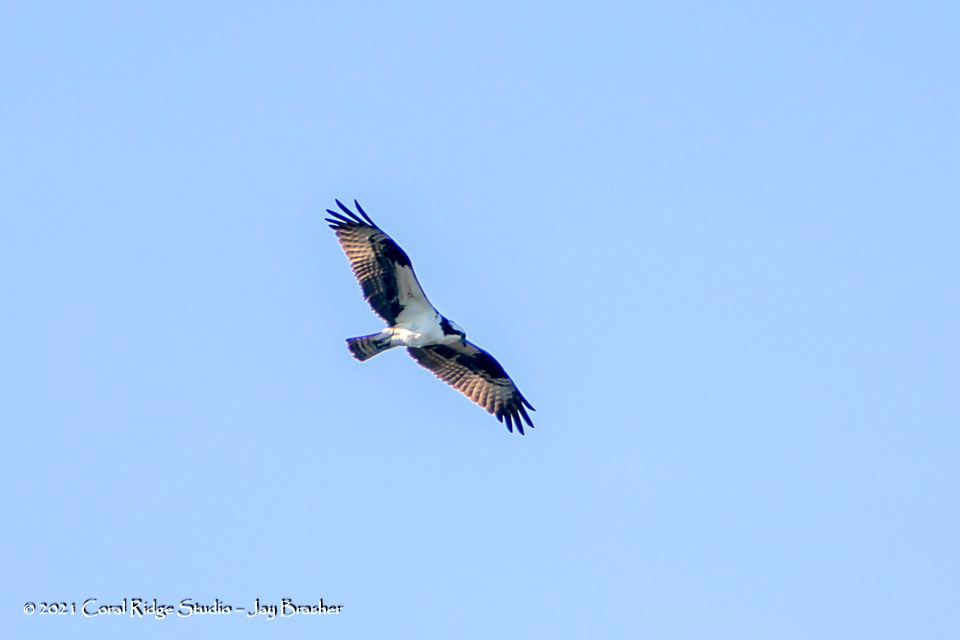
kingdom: Animalia
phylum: Chordata
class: Aves
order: Accipitriformes
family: Pandionidae
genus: Pandion
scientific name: Pandion haliaetus
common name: Osprey
